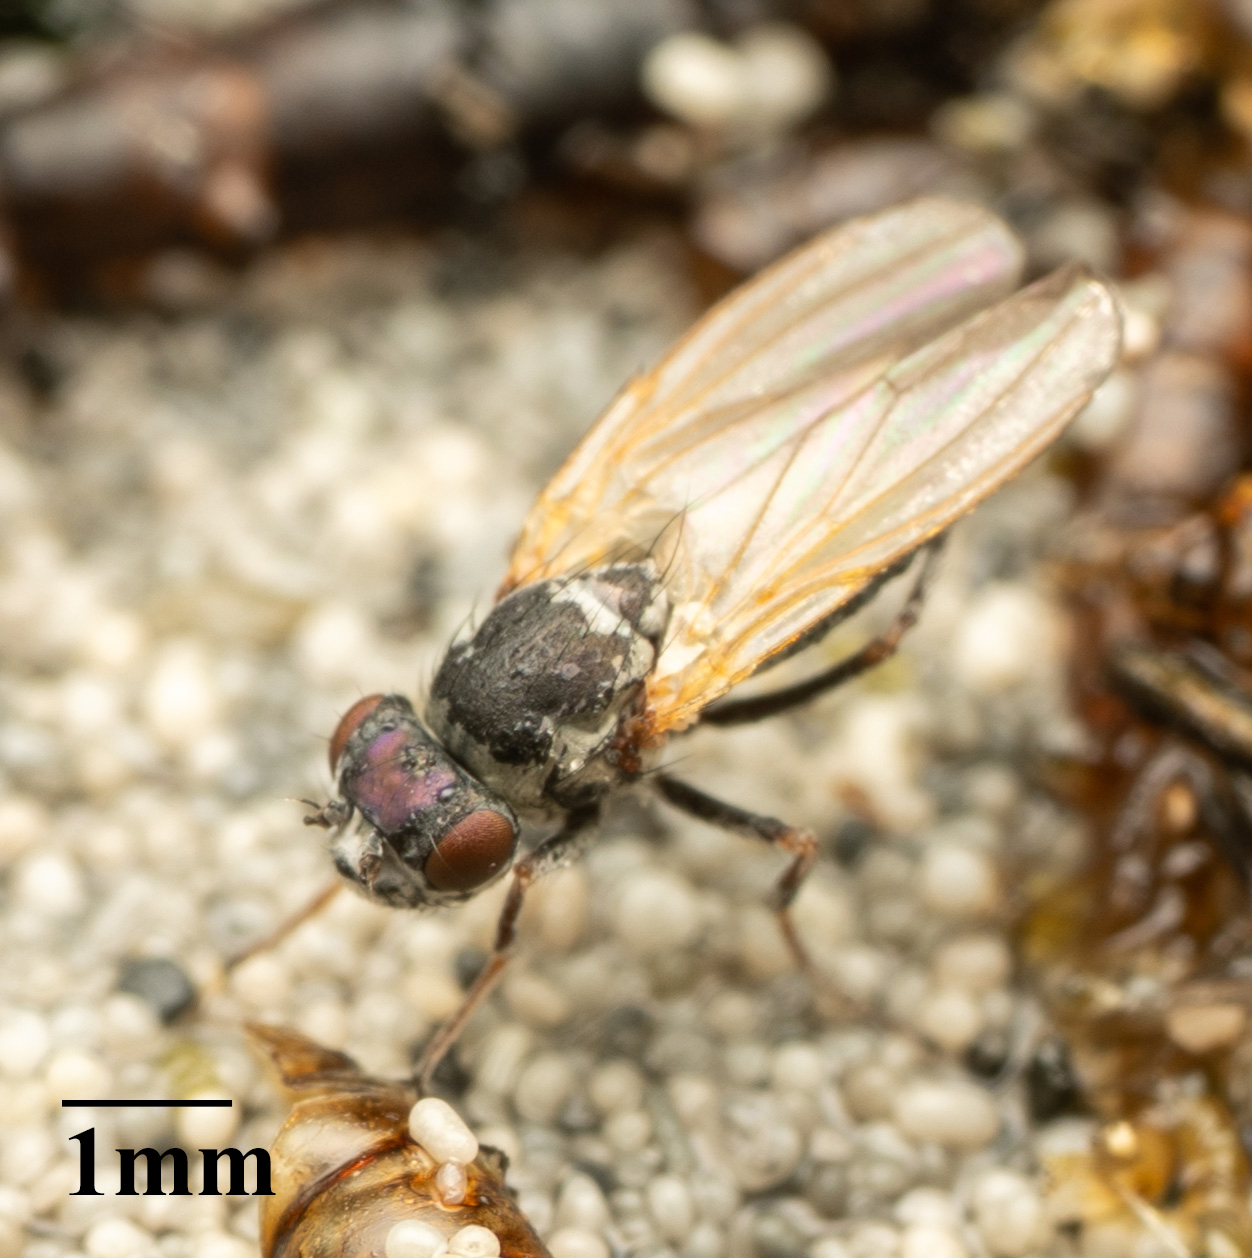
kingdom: Animalia
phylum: Arthropoda
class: Insecta
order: Diptera
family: Ephydridae
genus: Ephydra
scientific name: Ephydra gracilis
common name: Shore fly
